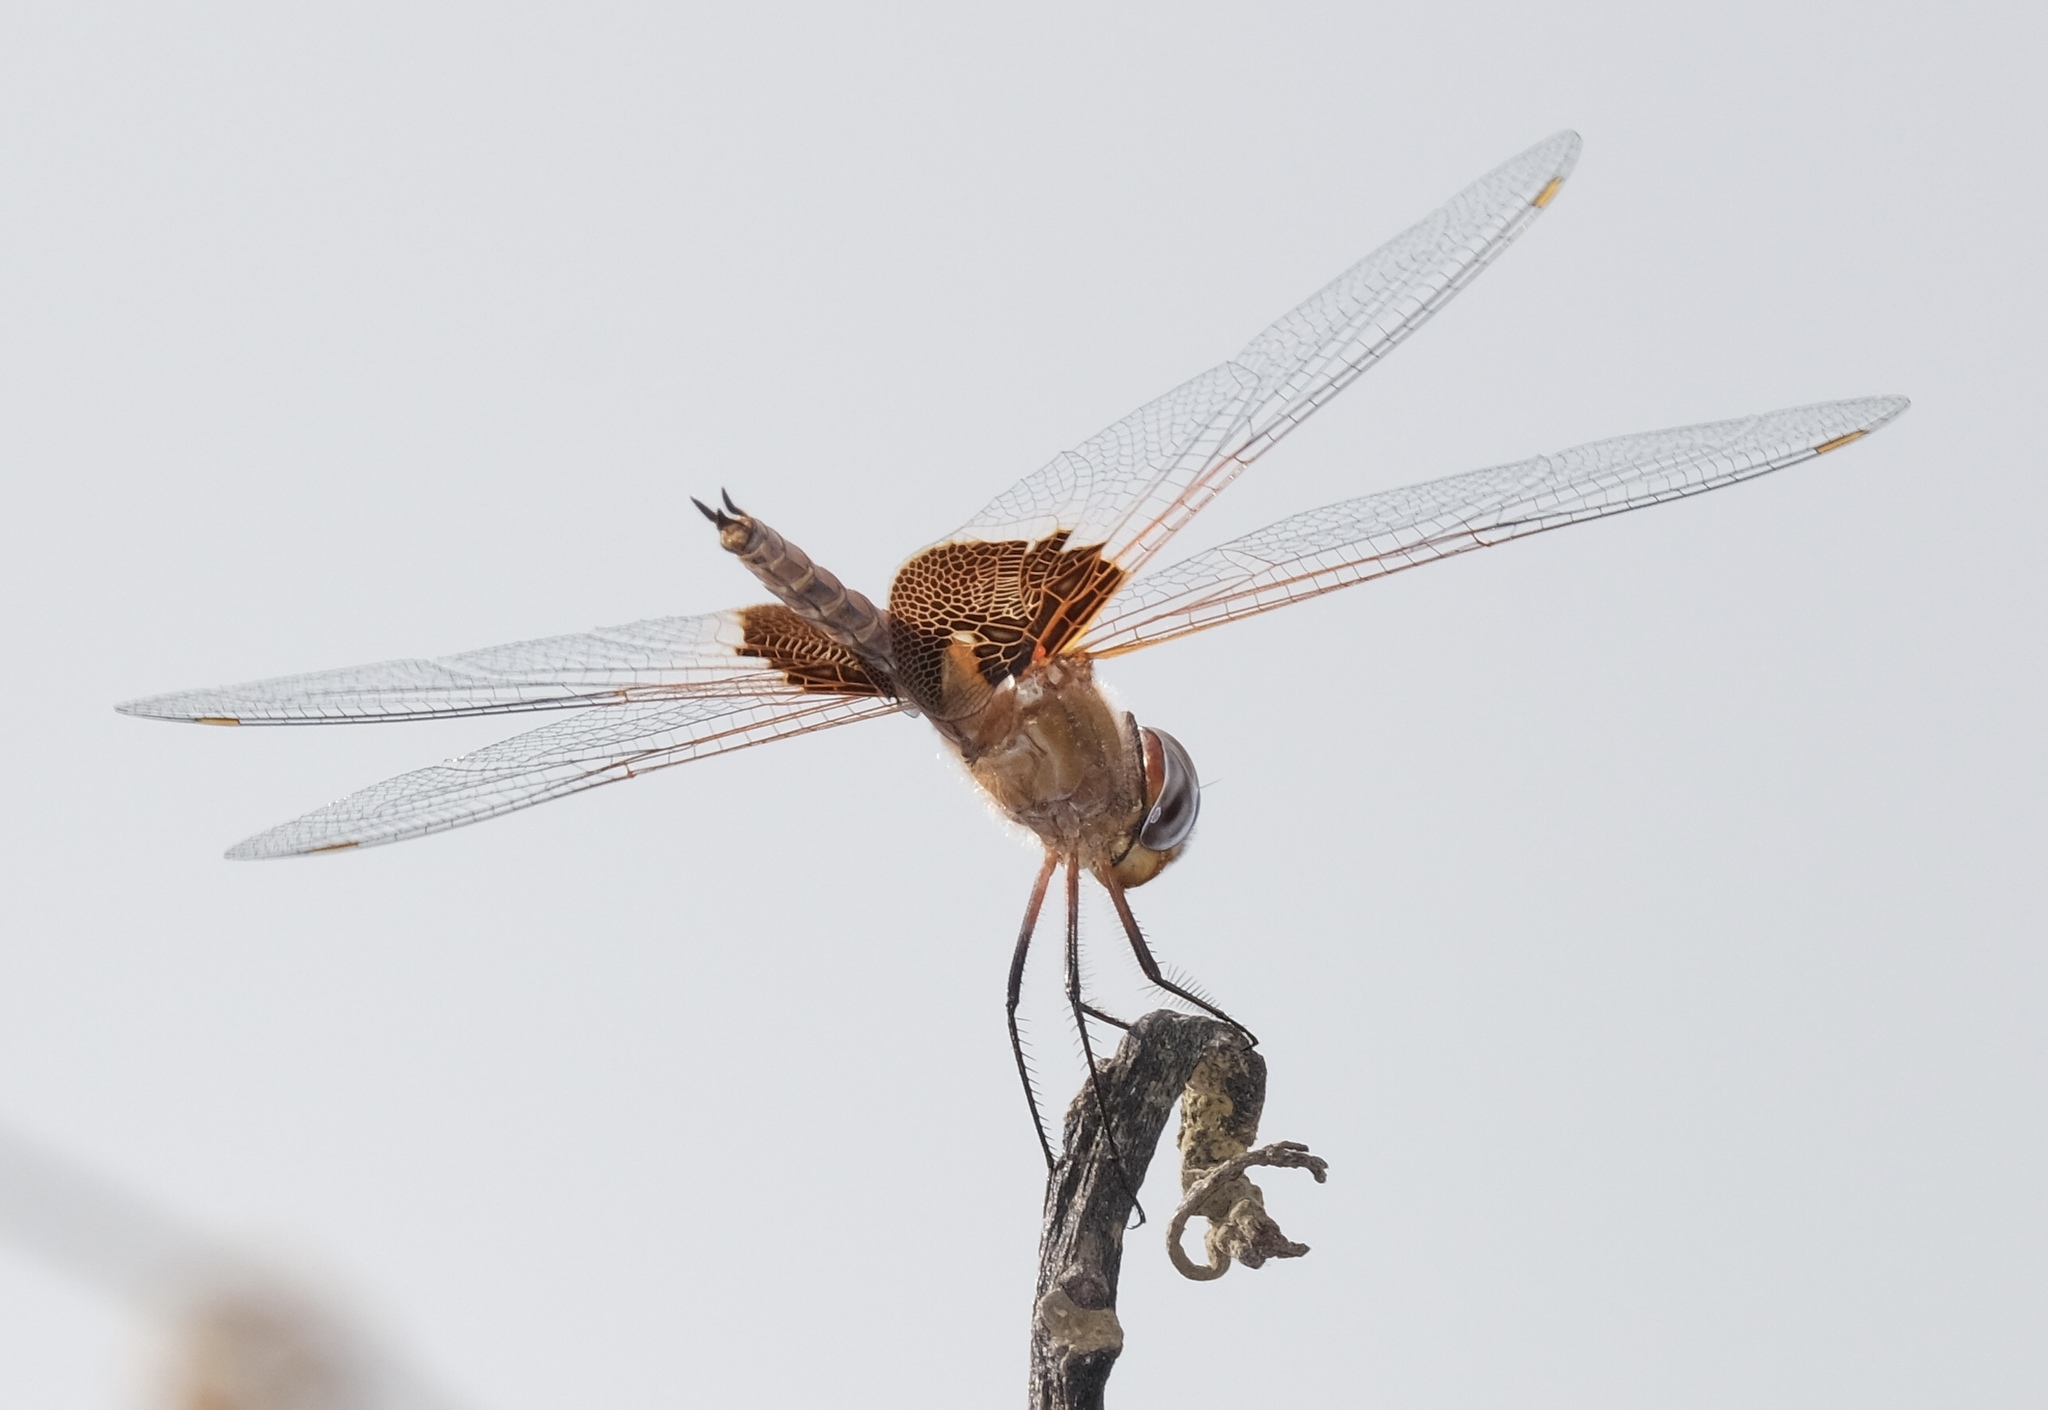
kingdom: Animalia
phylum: Arthropoda
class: Insecta
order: Odonata
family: Libellulidae
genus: Tramea
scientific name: Tramea onusta
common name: Red saddlebags
